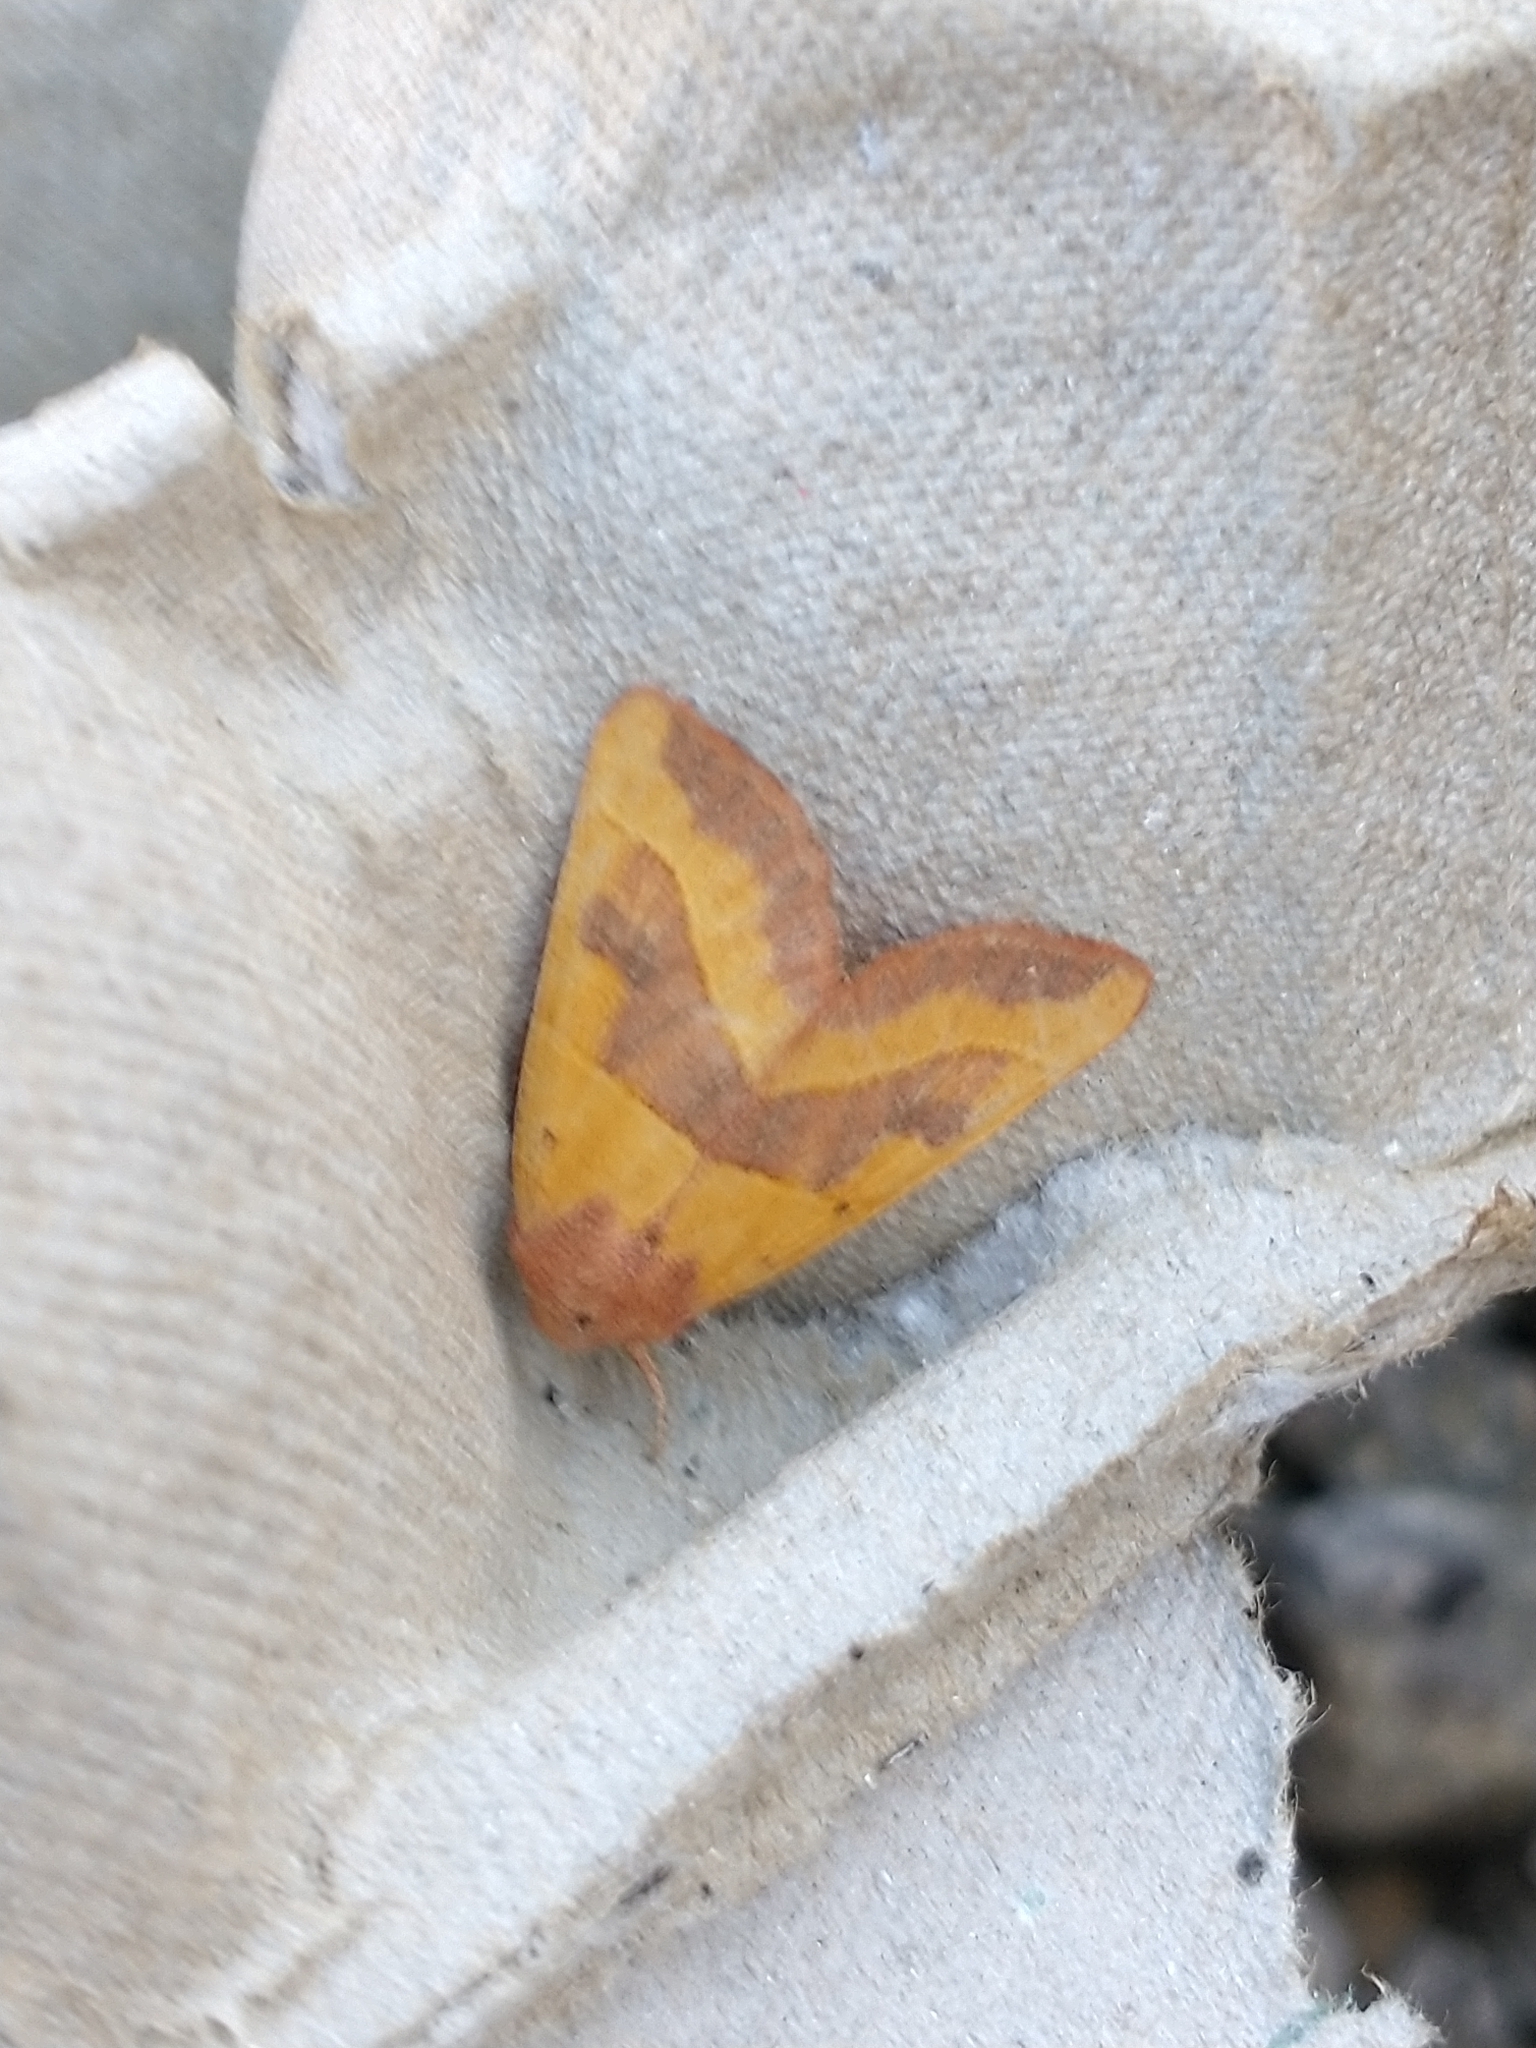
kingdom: Animalia
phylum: Arthropoda
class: Insecta
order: Lepidoptera
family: Noctuidae
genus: Atethmia
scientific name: Atethmia centrago
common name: Centre-barred sallow
